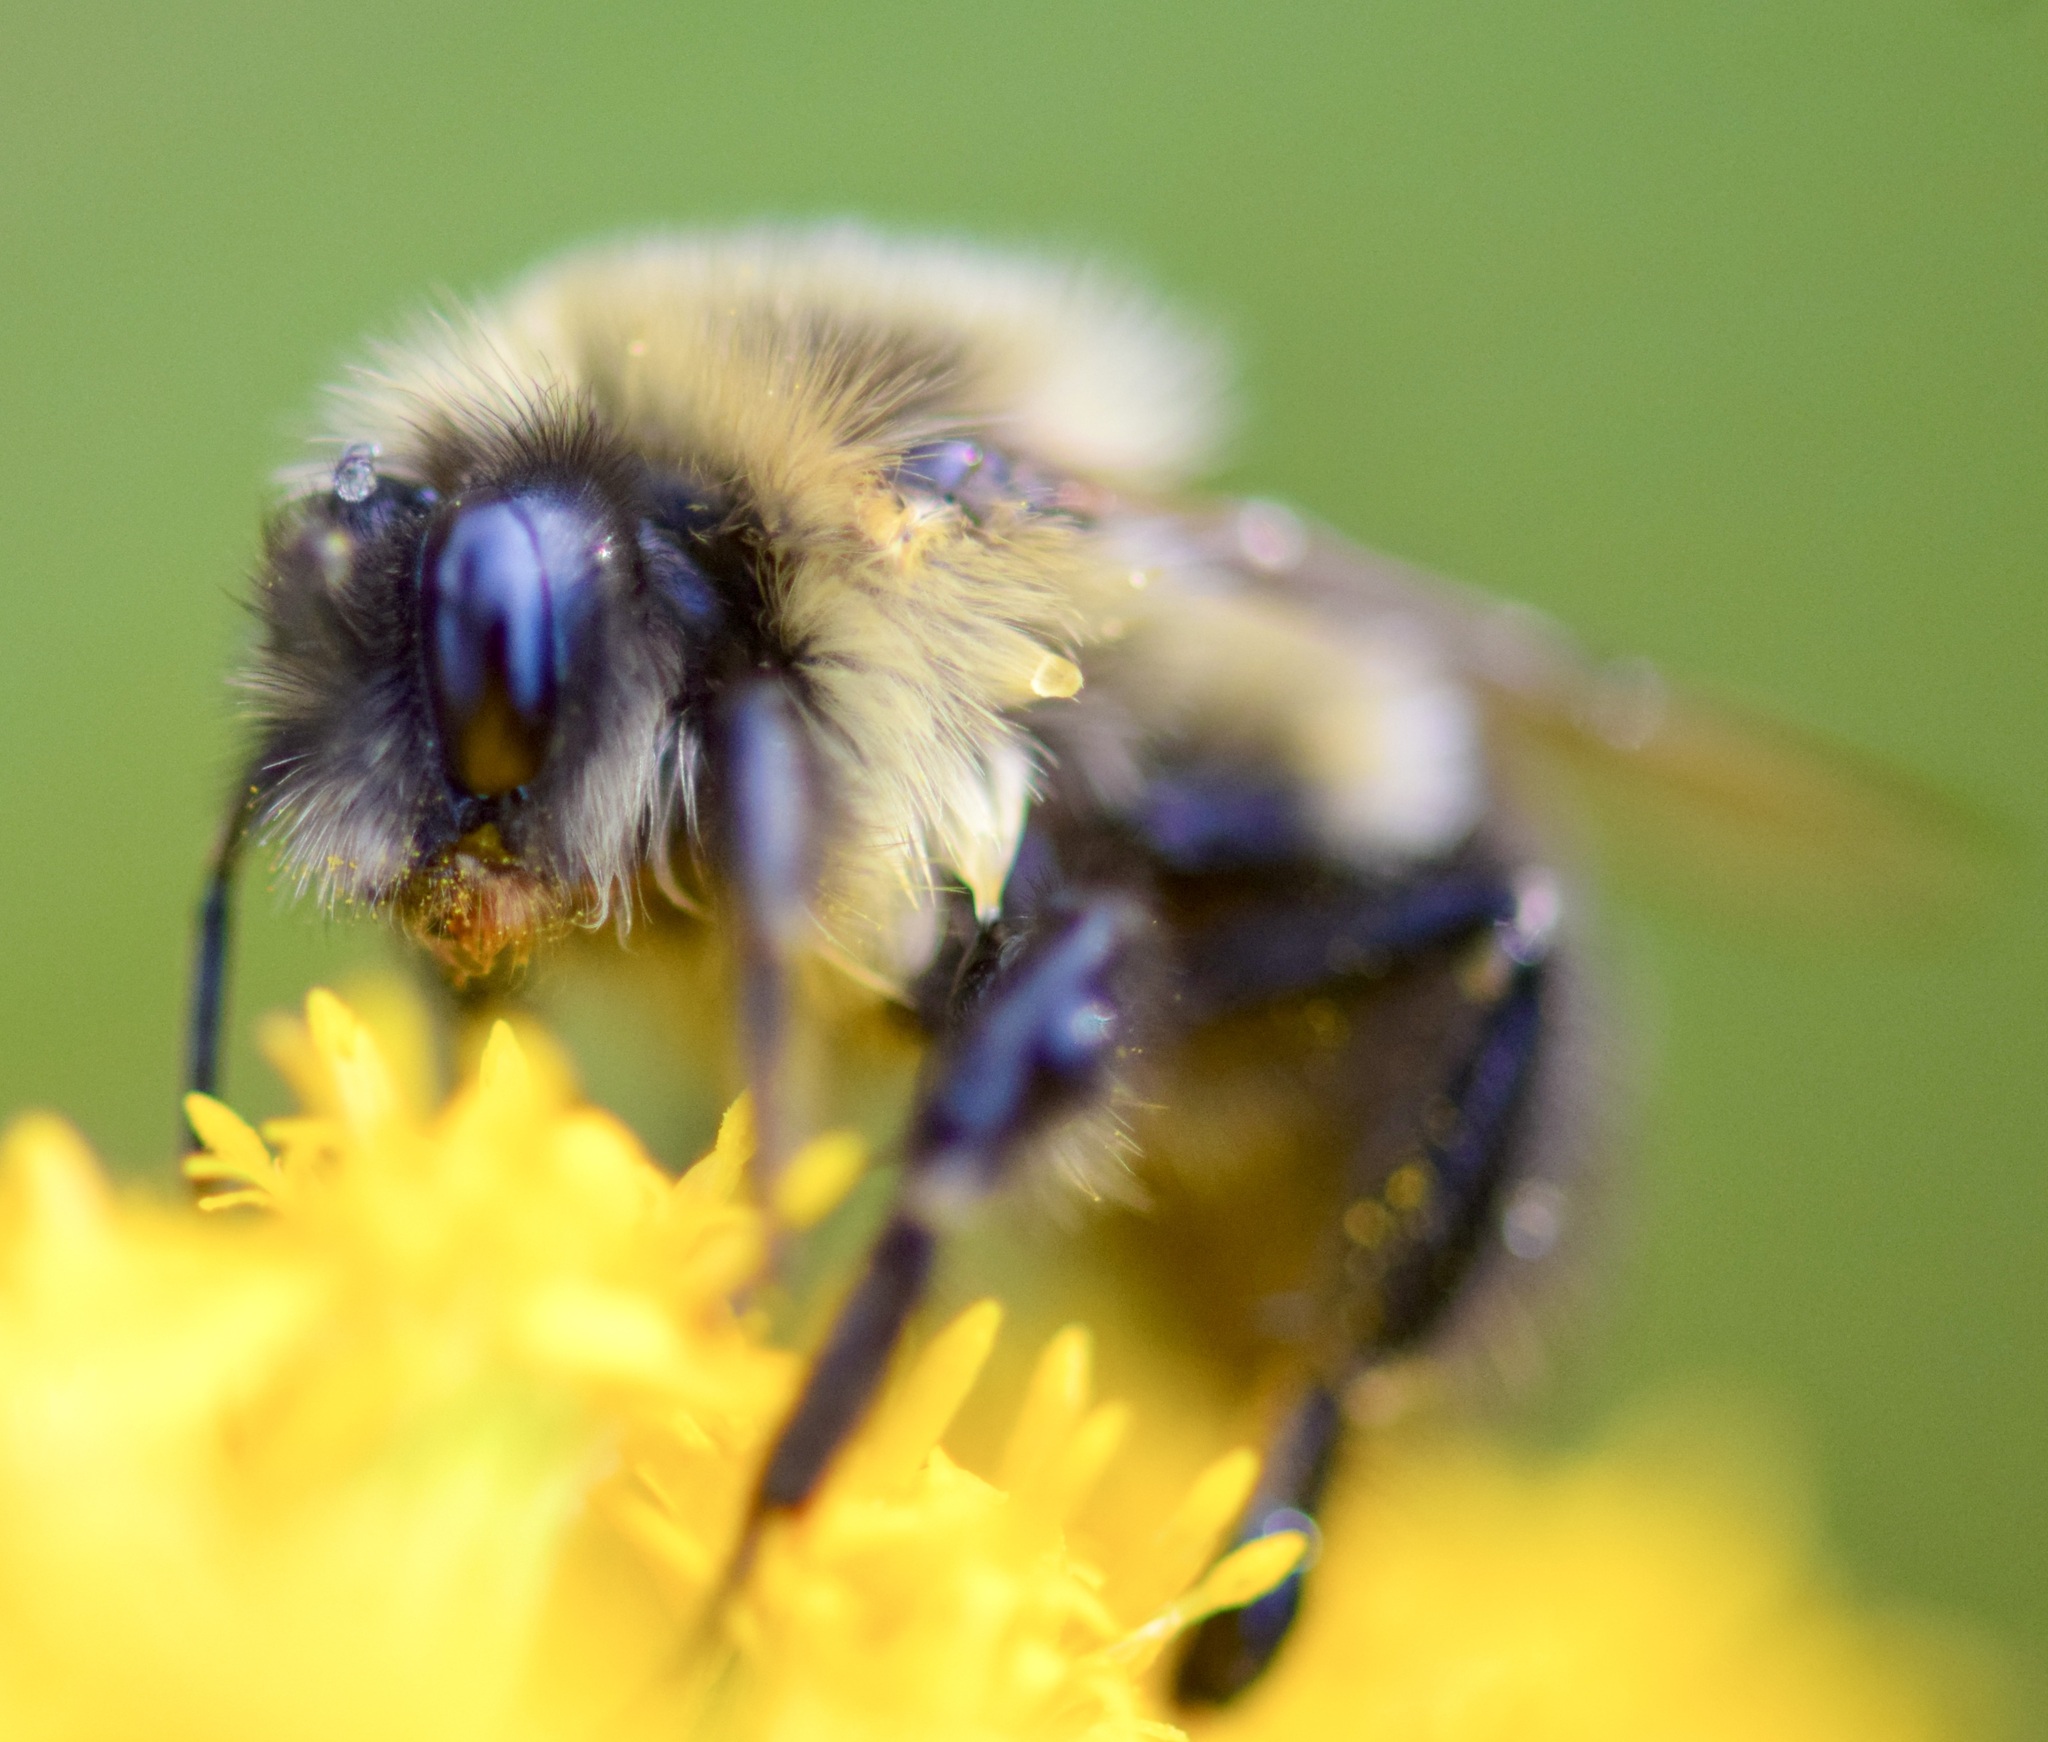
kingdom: Animalia
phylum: Arthropoda
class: Insecta
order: Hymenoptera
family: Apidae
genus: Bombus
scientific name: Bombus impatiens
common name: Common eastern bumble bee
